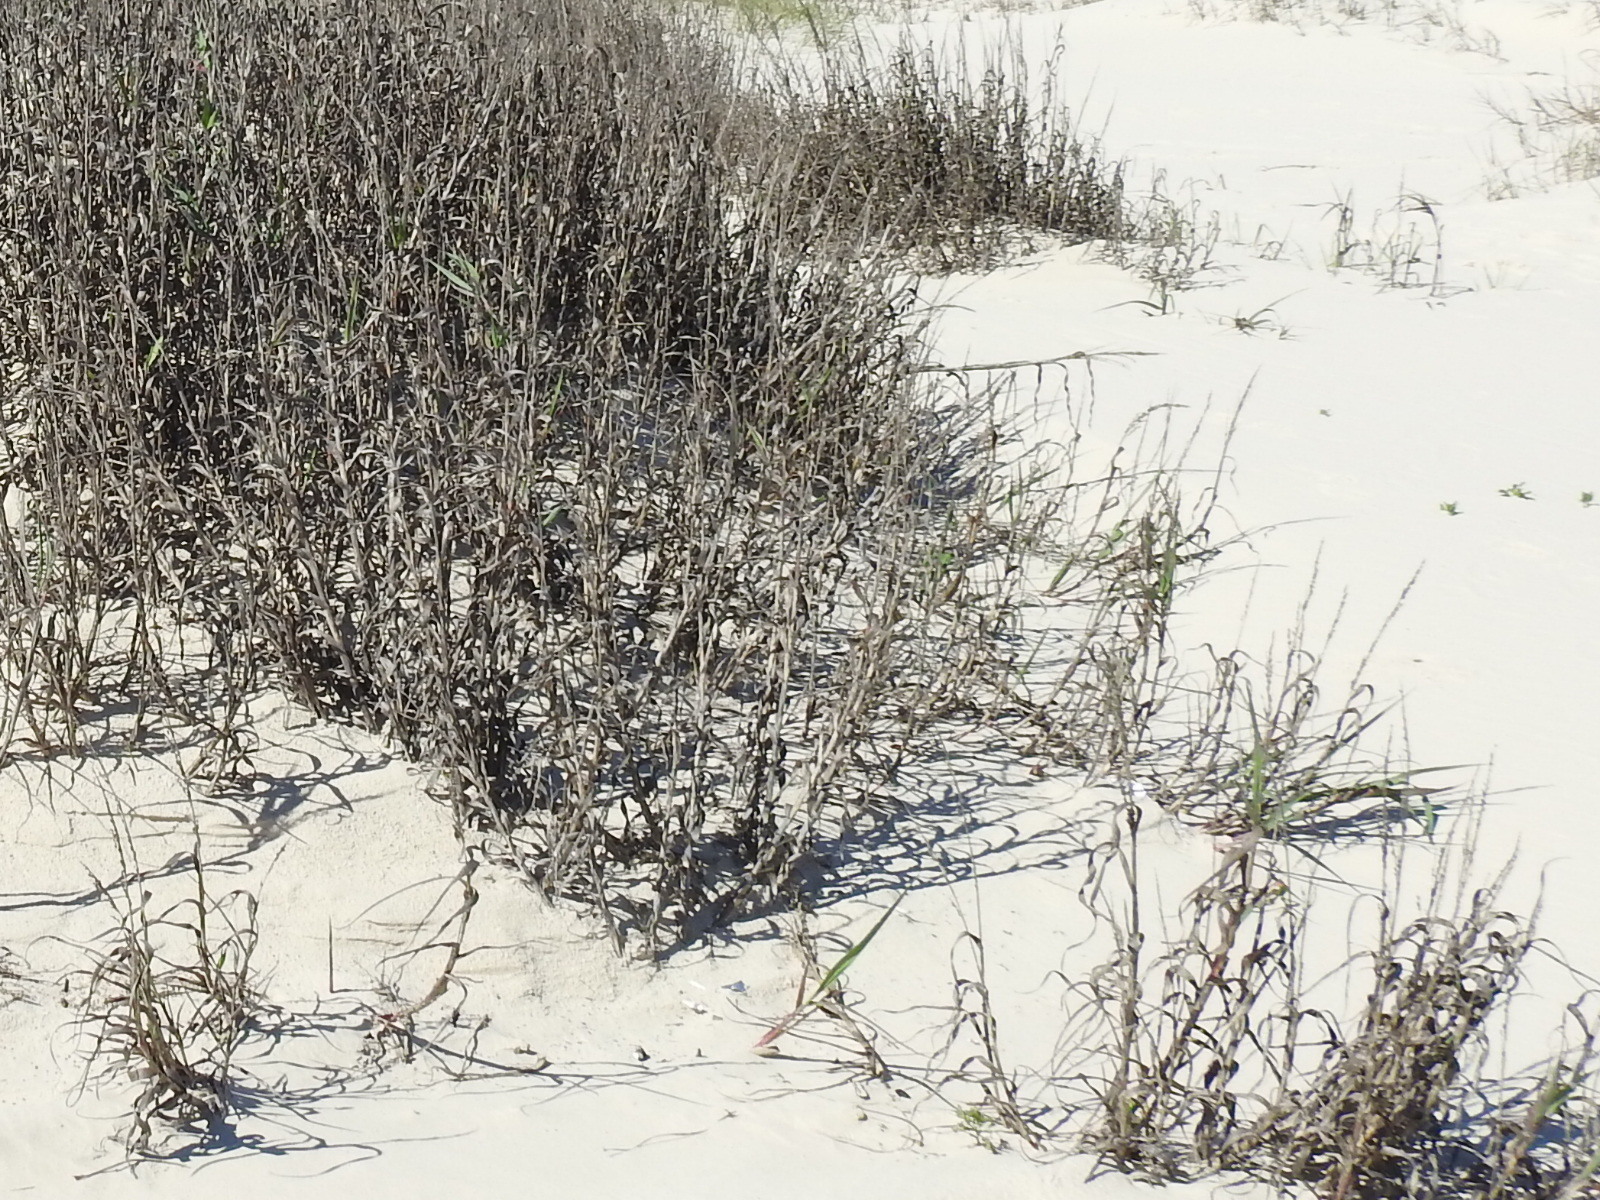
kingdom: Plantae
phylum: Tracheophyta
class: Liliopsida
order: Poales
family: Poaceae
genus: Panicum
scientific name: Panicum amarum
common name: Bitter panicum
